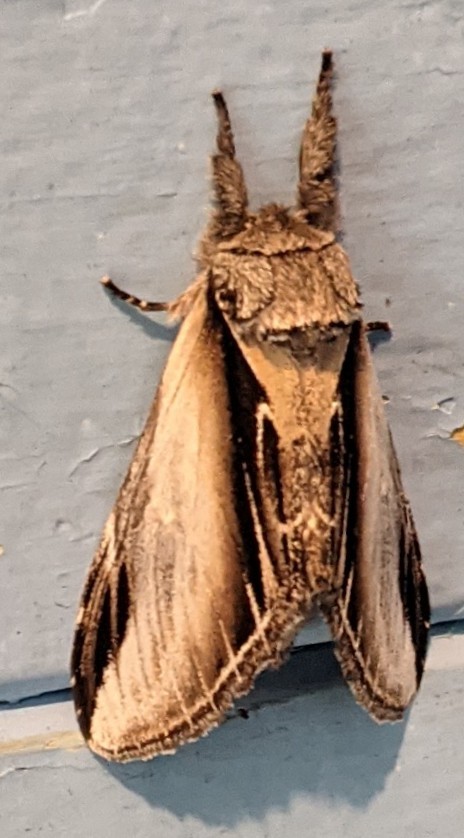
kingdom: Animalia
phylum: Arthropoda
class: Insecta
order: Lepidoptera
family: Notodontidae
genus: Pheosia
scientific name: Pheosia rimosa
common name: Black-rimmed prominent
